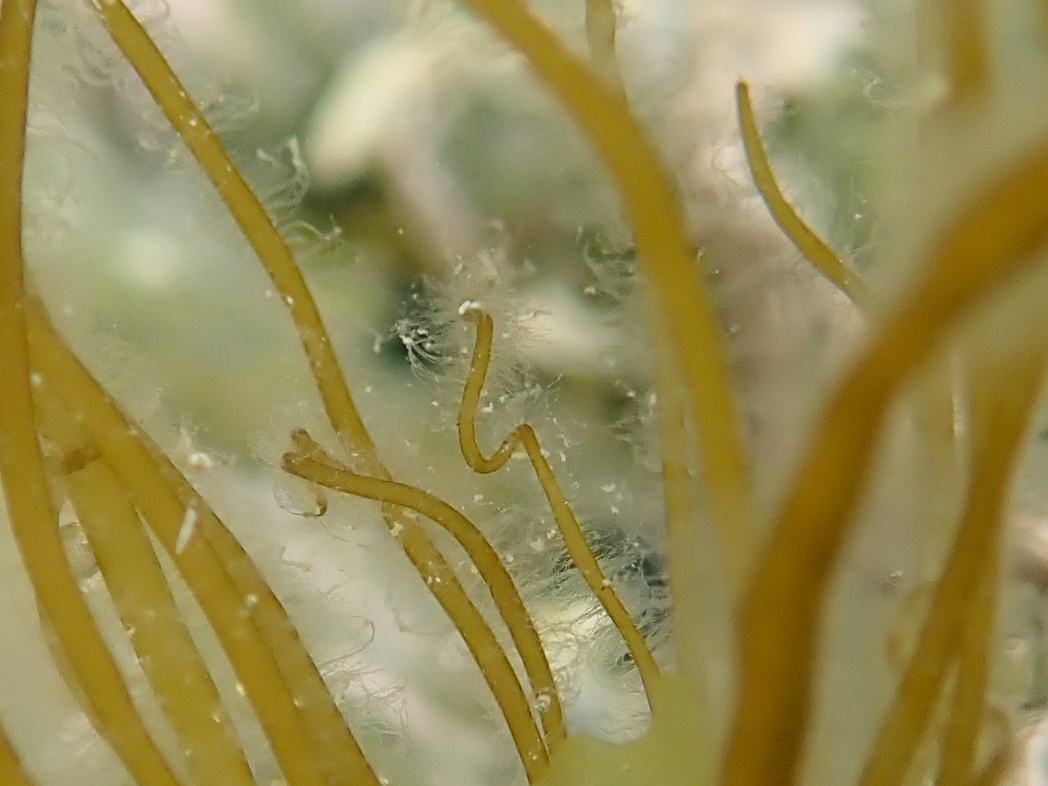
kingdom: Chromista
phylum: Ochrophyta
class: Phaeophyceae
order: Scytosiphonales
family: Scytosiphonaceae
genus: Scytosiphon
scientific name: Scytosiphon lomentaria
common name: Beanweed
